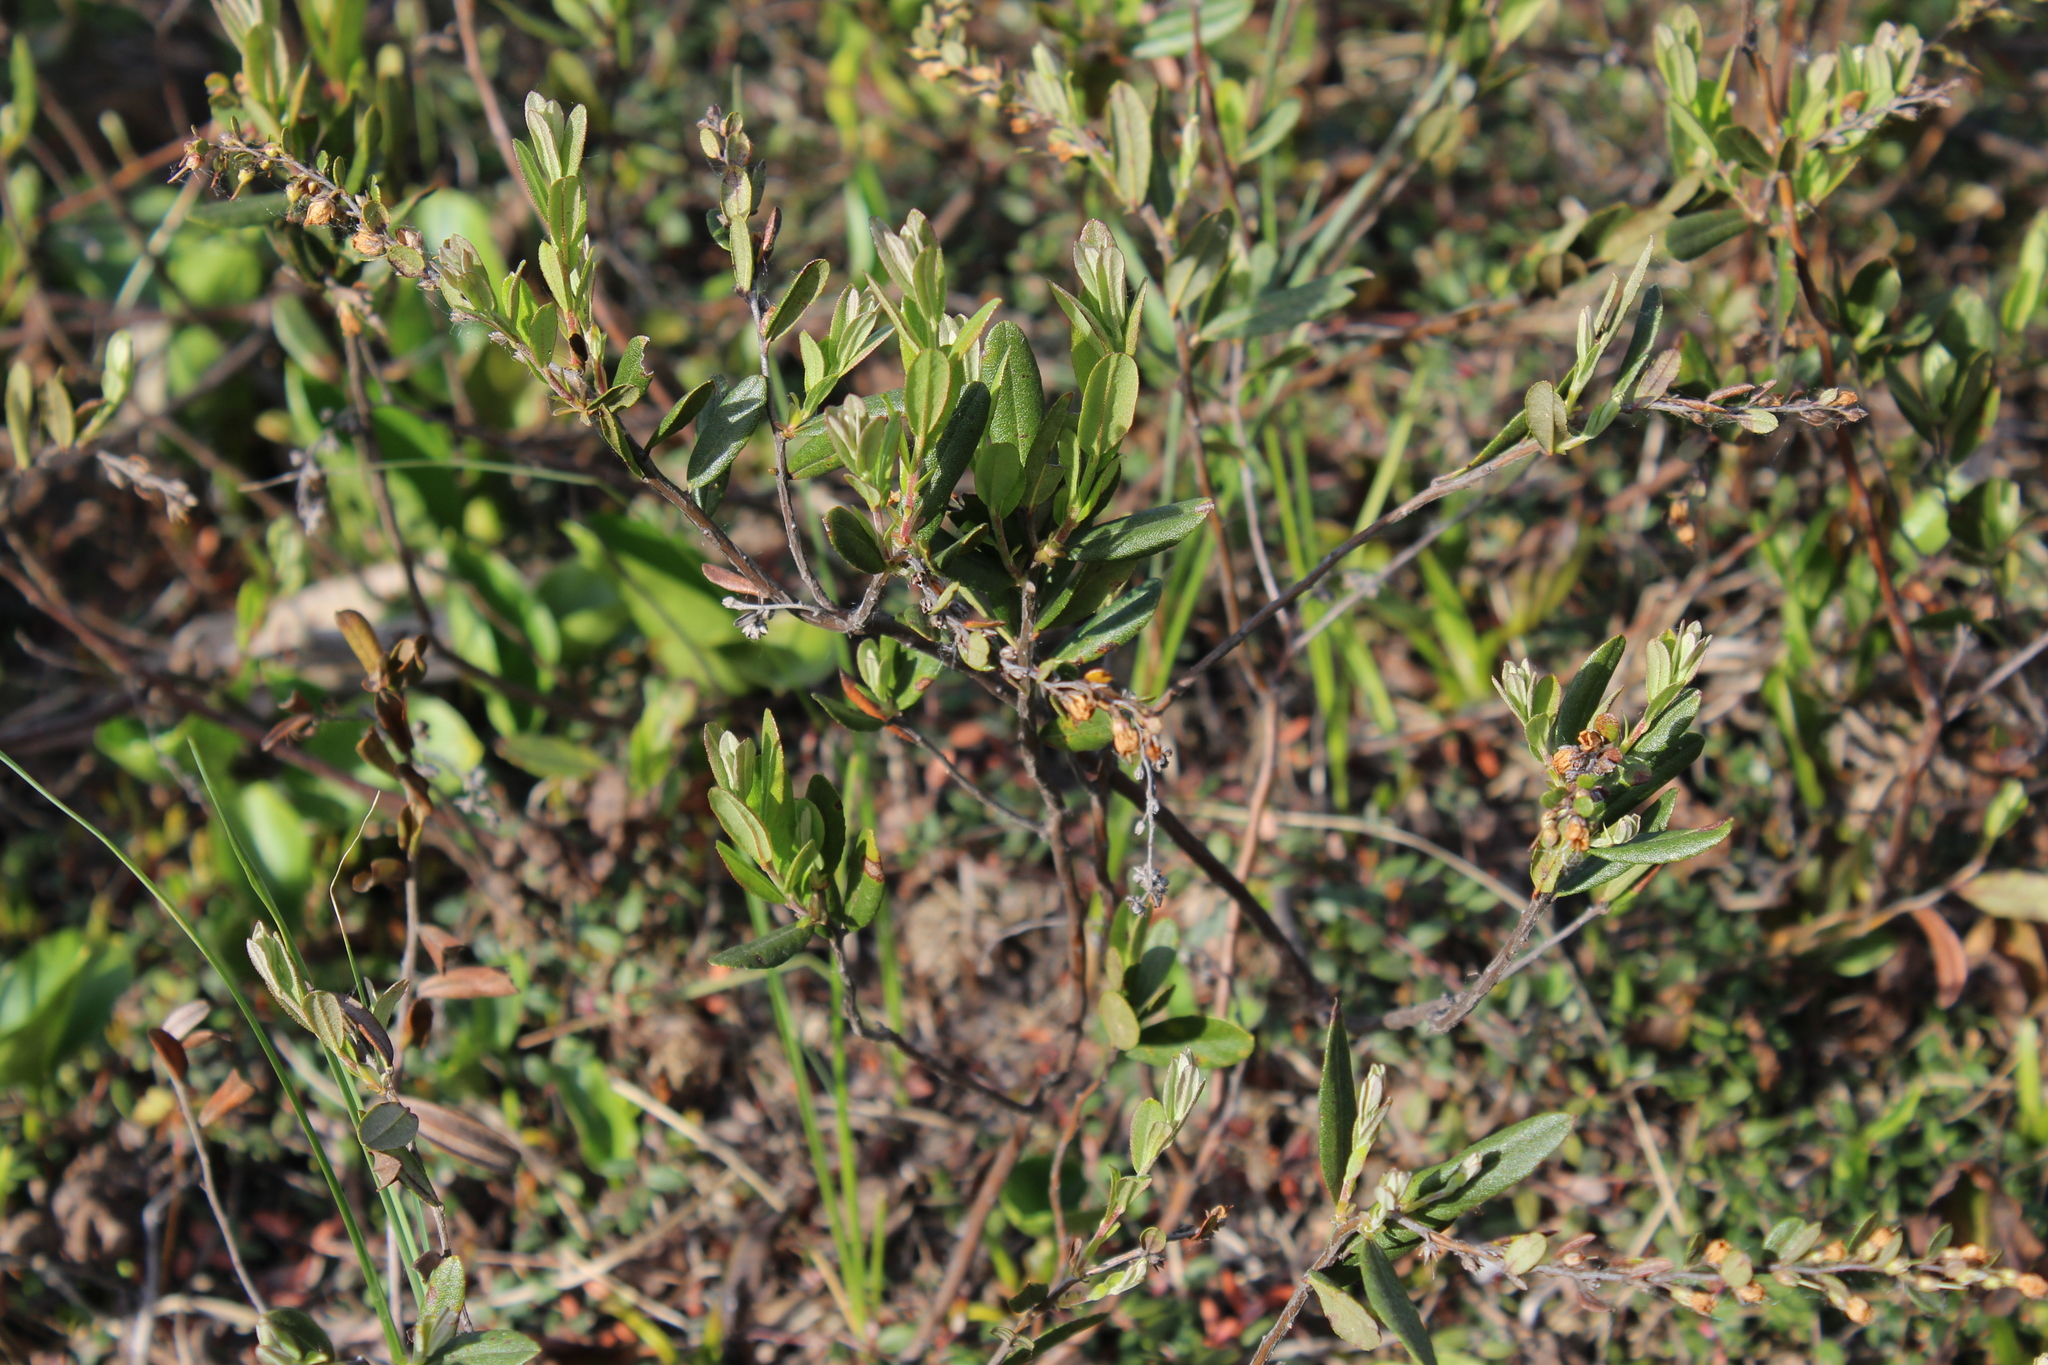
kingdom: Plantae
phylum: Tracheophyta
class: Magnoliopsida
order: Ericales
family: Ericaceae
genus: Chamaedaphne
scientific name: Chamaedaphne calyculata
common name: Leatherleaf
